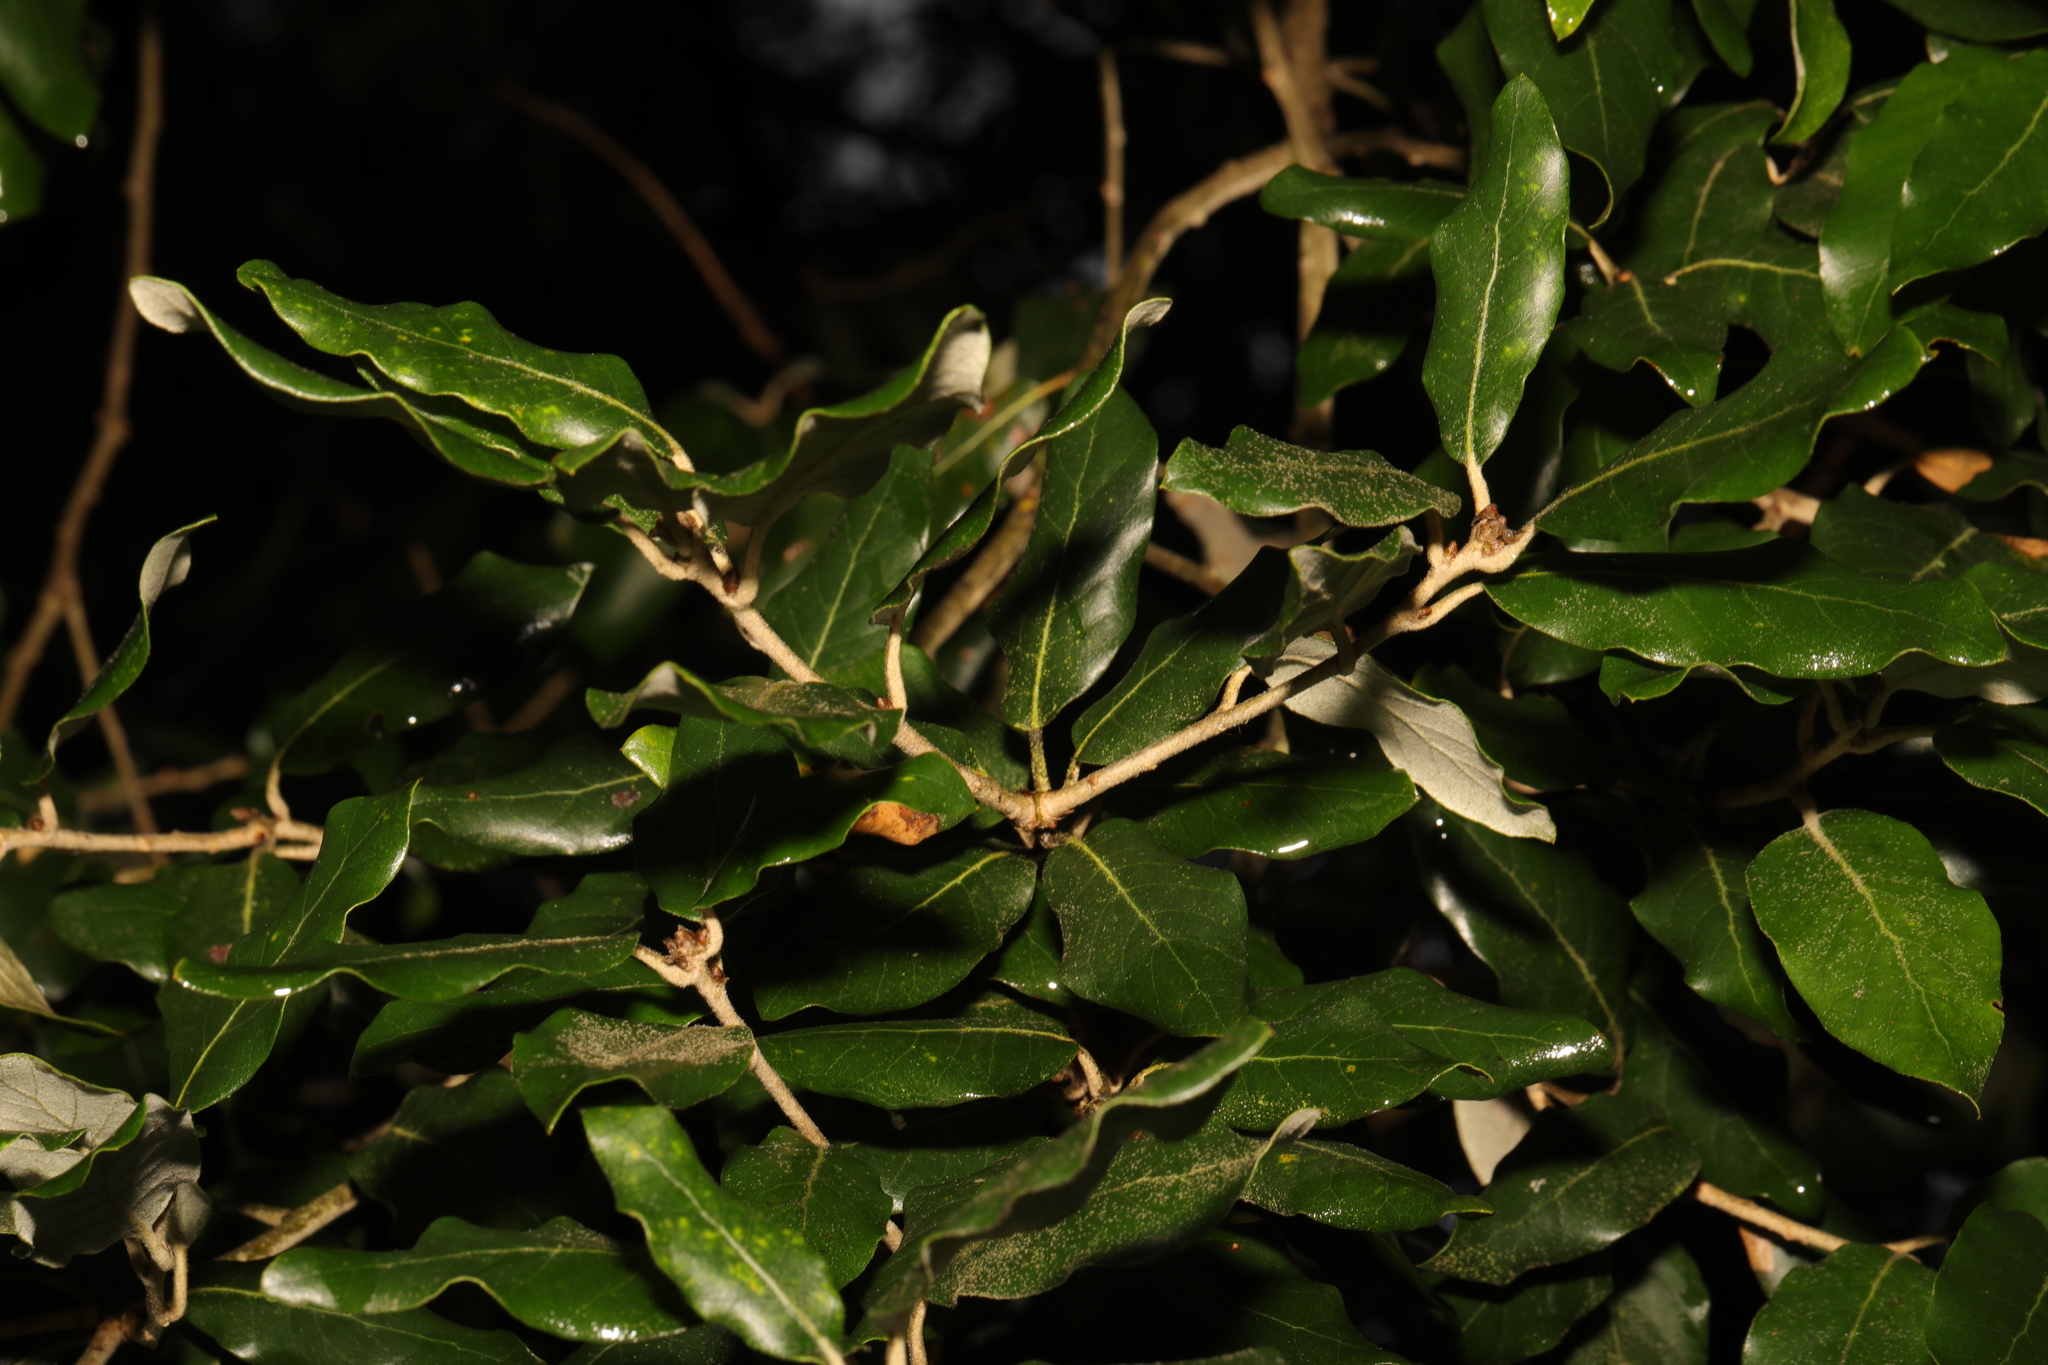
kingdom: Plantae
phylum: Tracheophyta
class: Magnoliopsida
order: Fagales
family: Fagaceae
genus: Quercus
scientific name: Quercus ilex
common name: Evergreen oak
